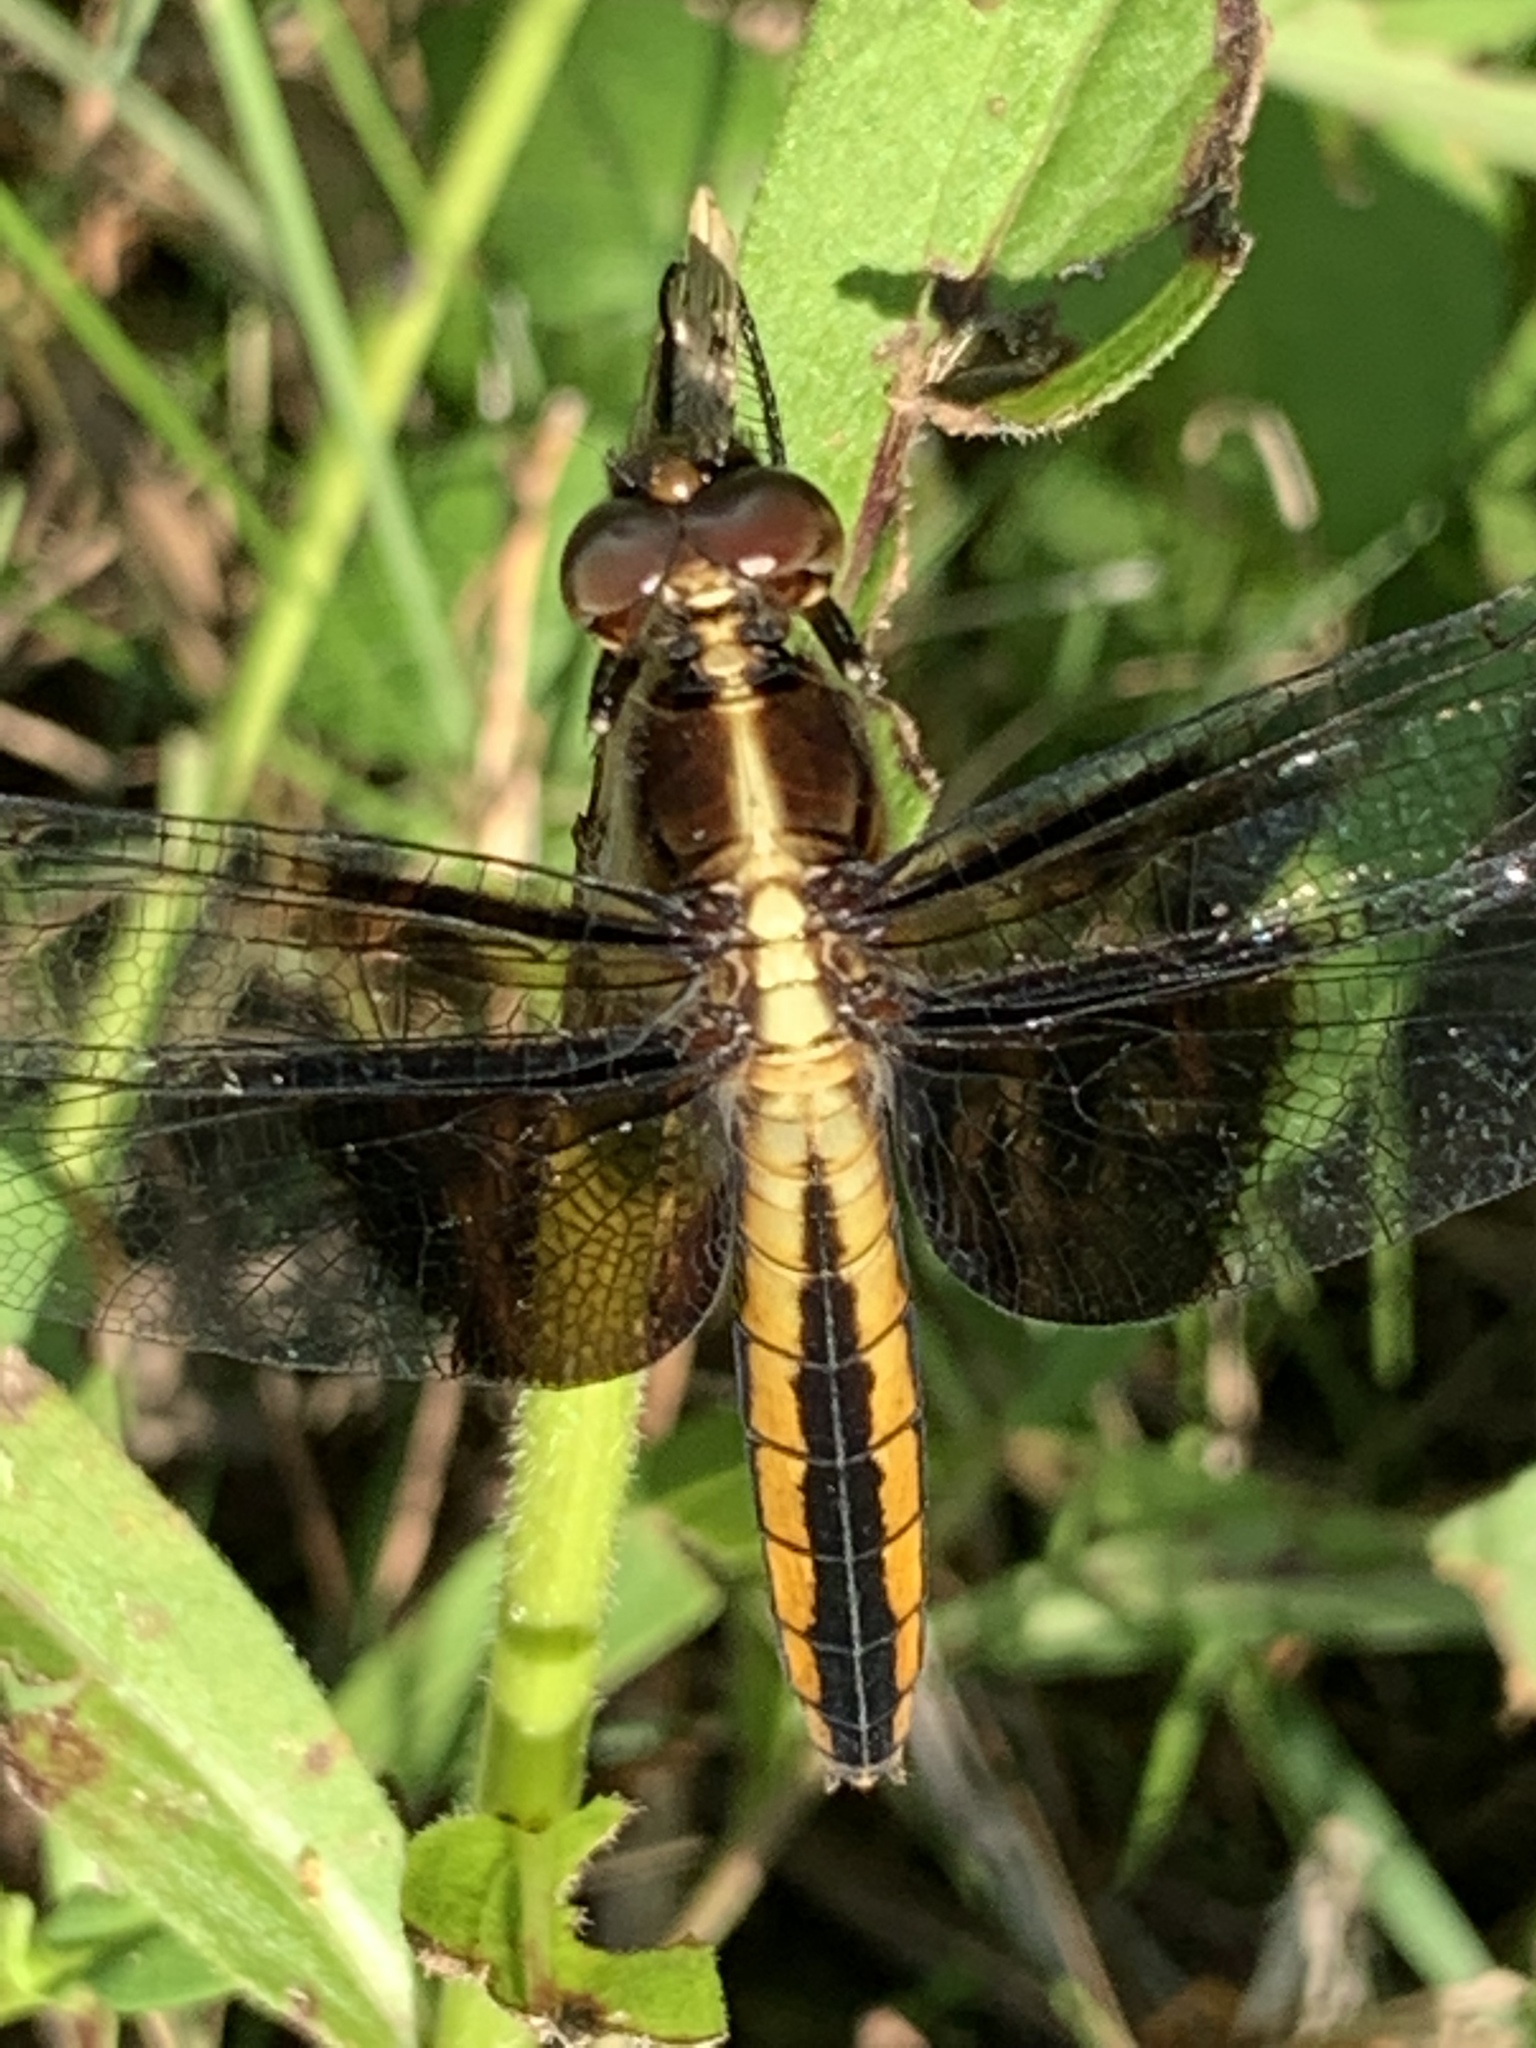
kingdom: Animalia
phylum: Arthropoda
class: Insecta
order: Odonata
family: Libellulidae
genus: Libellula
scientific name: Libellula luctuosa
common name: Widow skimmer
